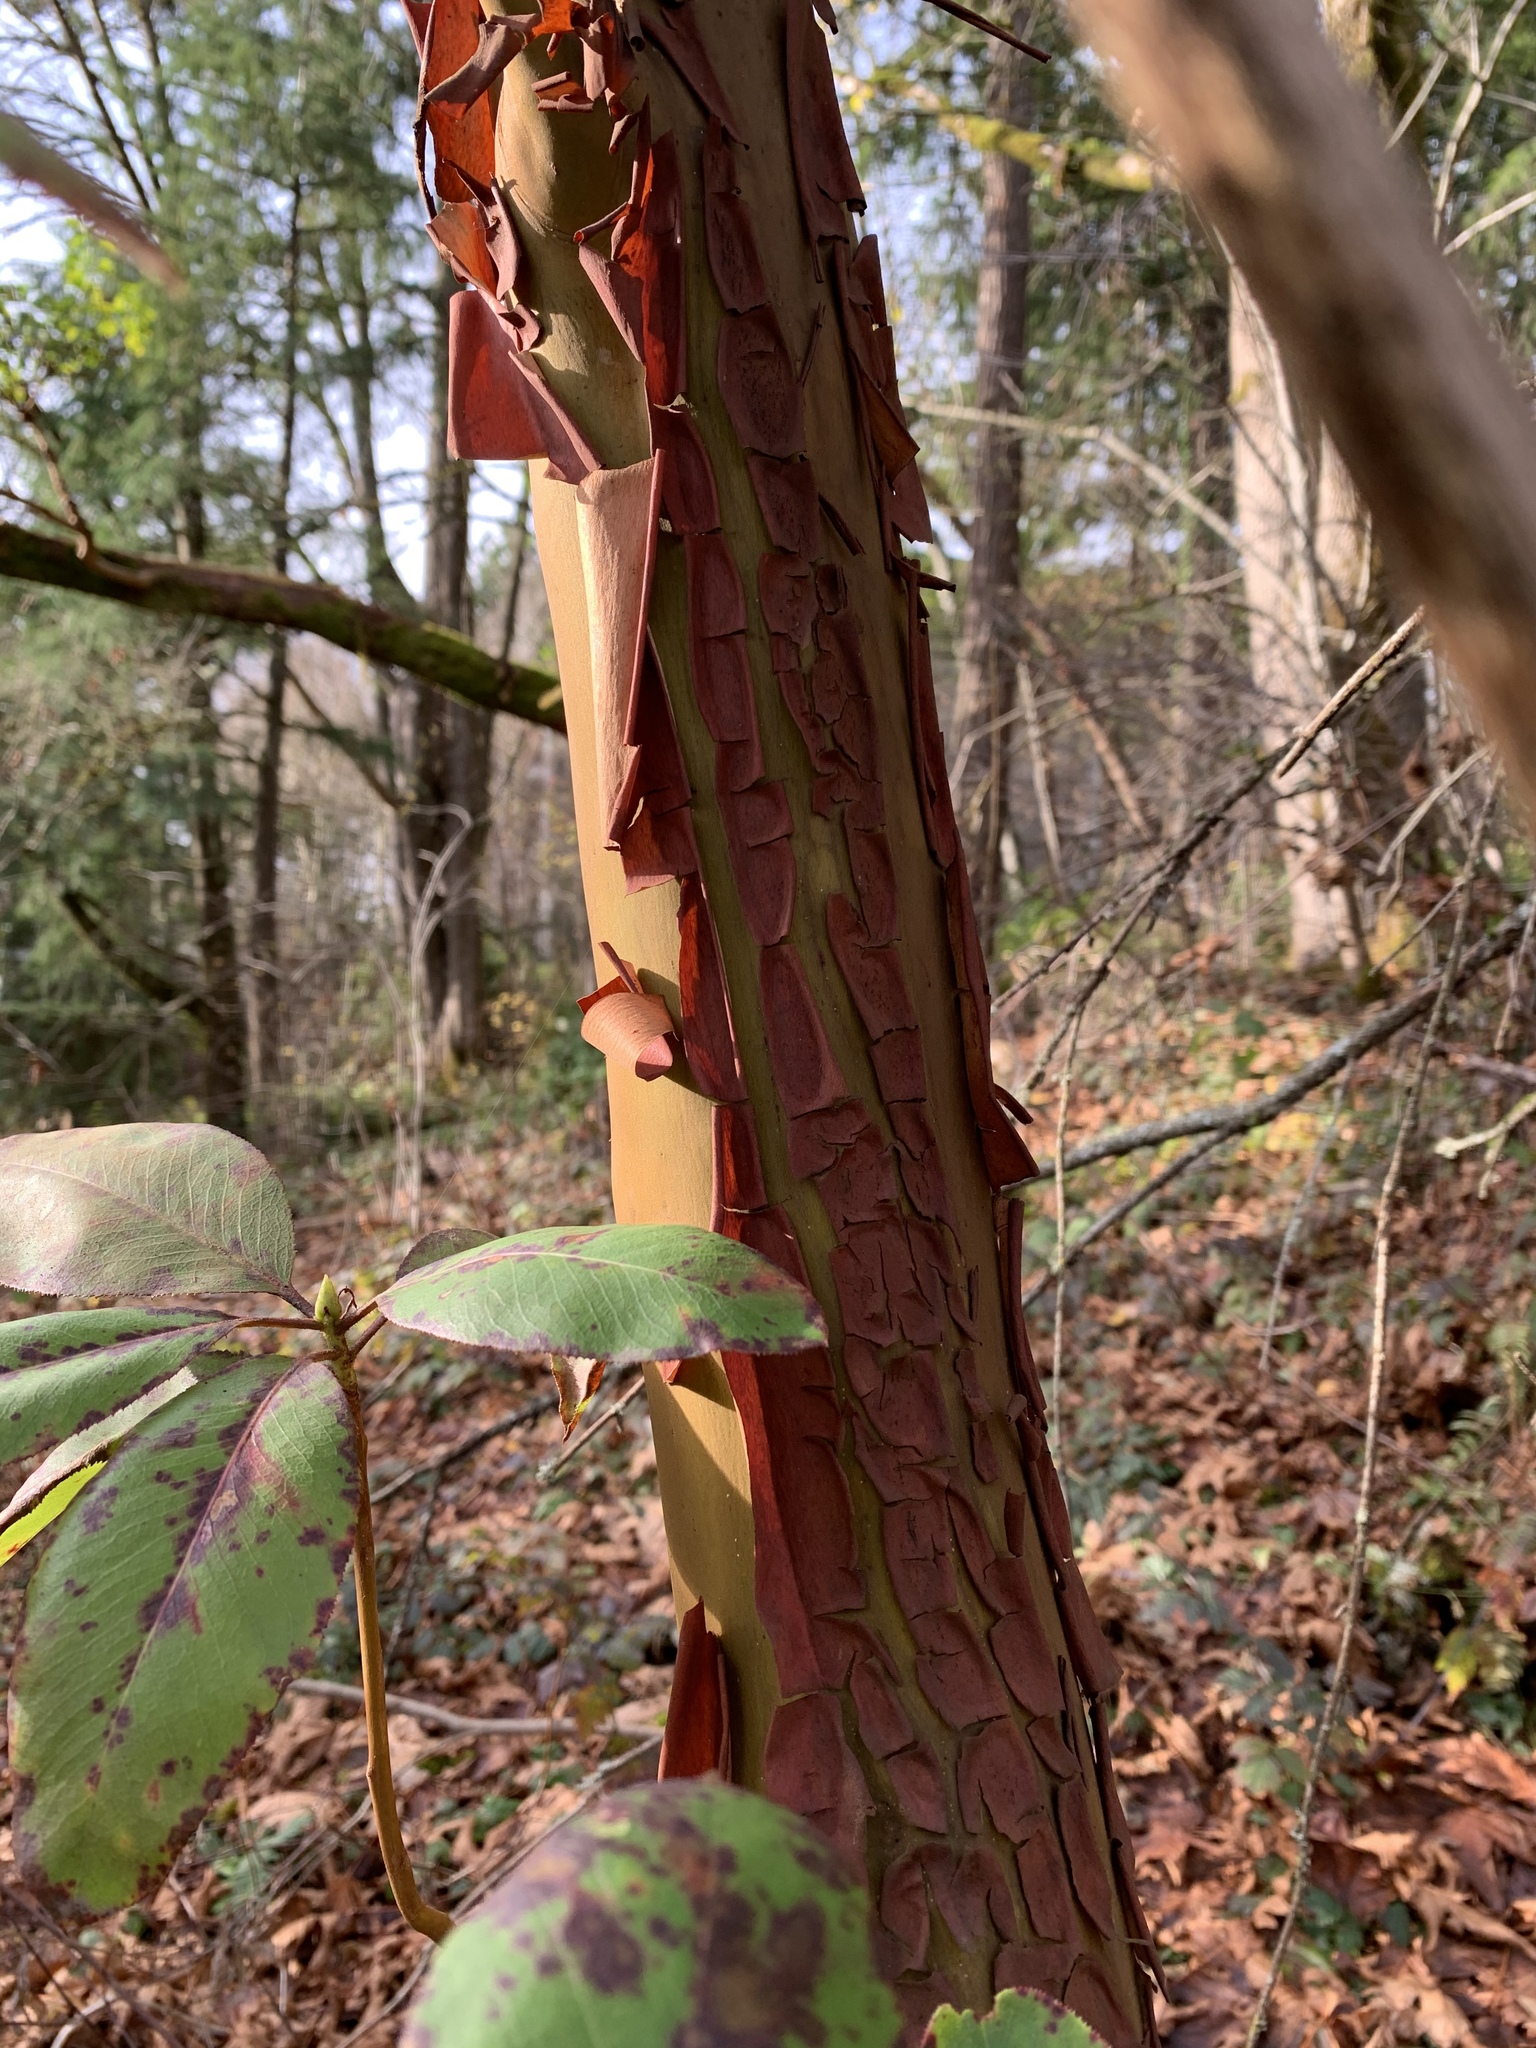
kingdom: Plantae
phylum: Tracheophyta
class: Magnoliopsida
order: Ericales
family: Ericaceae
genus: Arbutus
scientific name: Arbutus menziesii
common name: Pacific madrone
